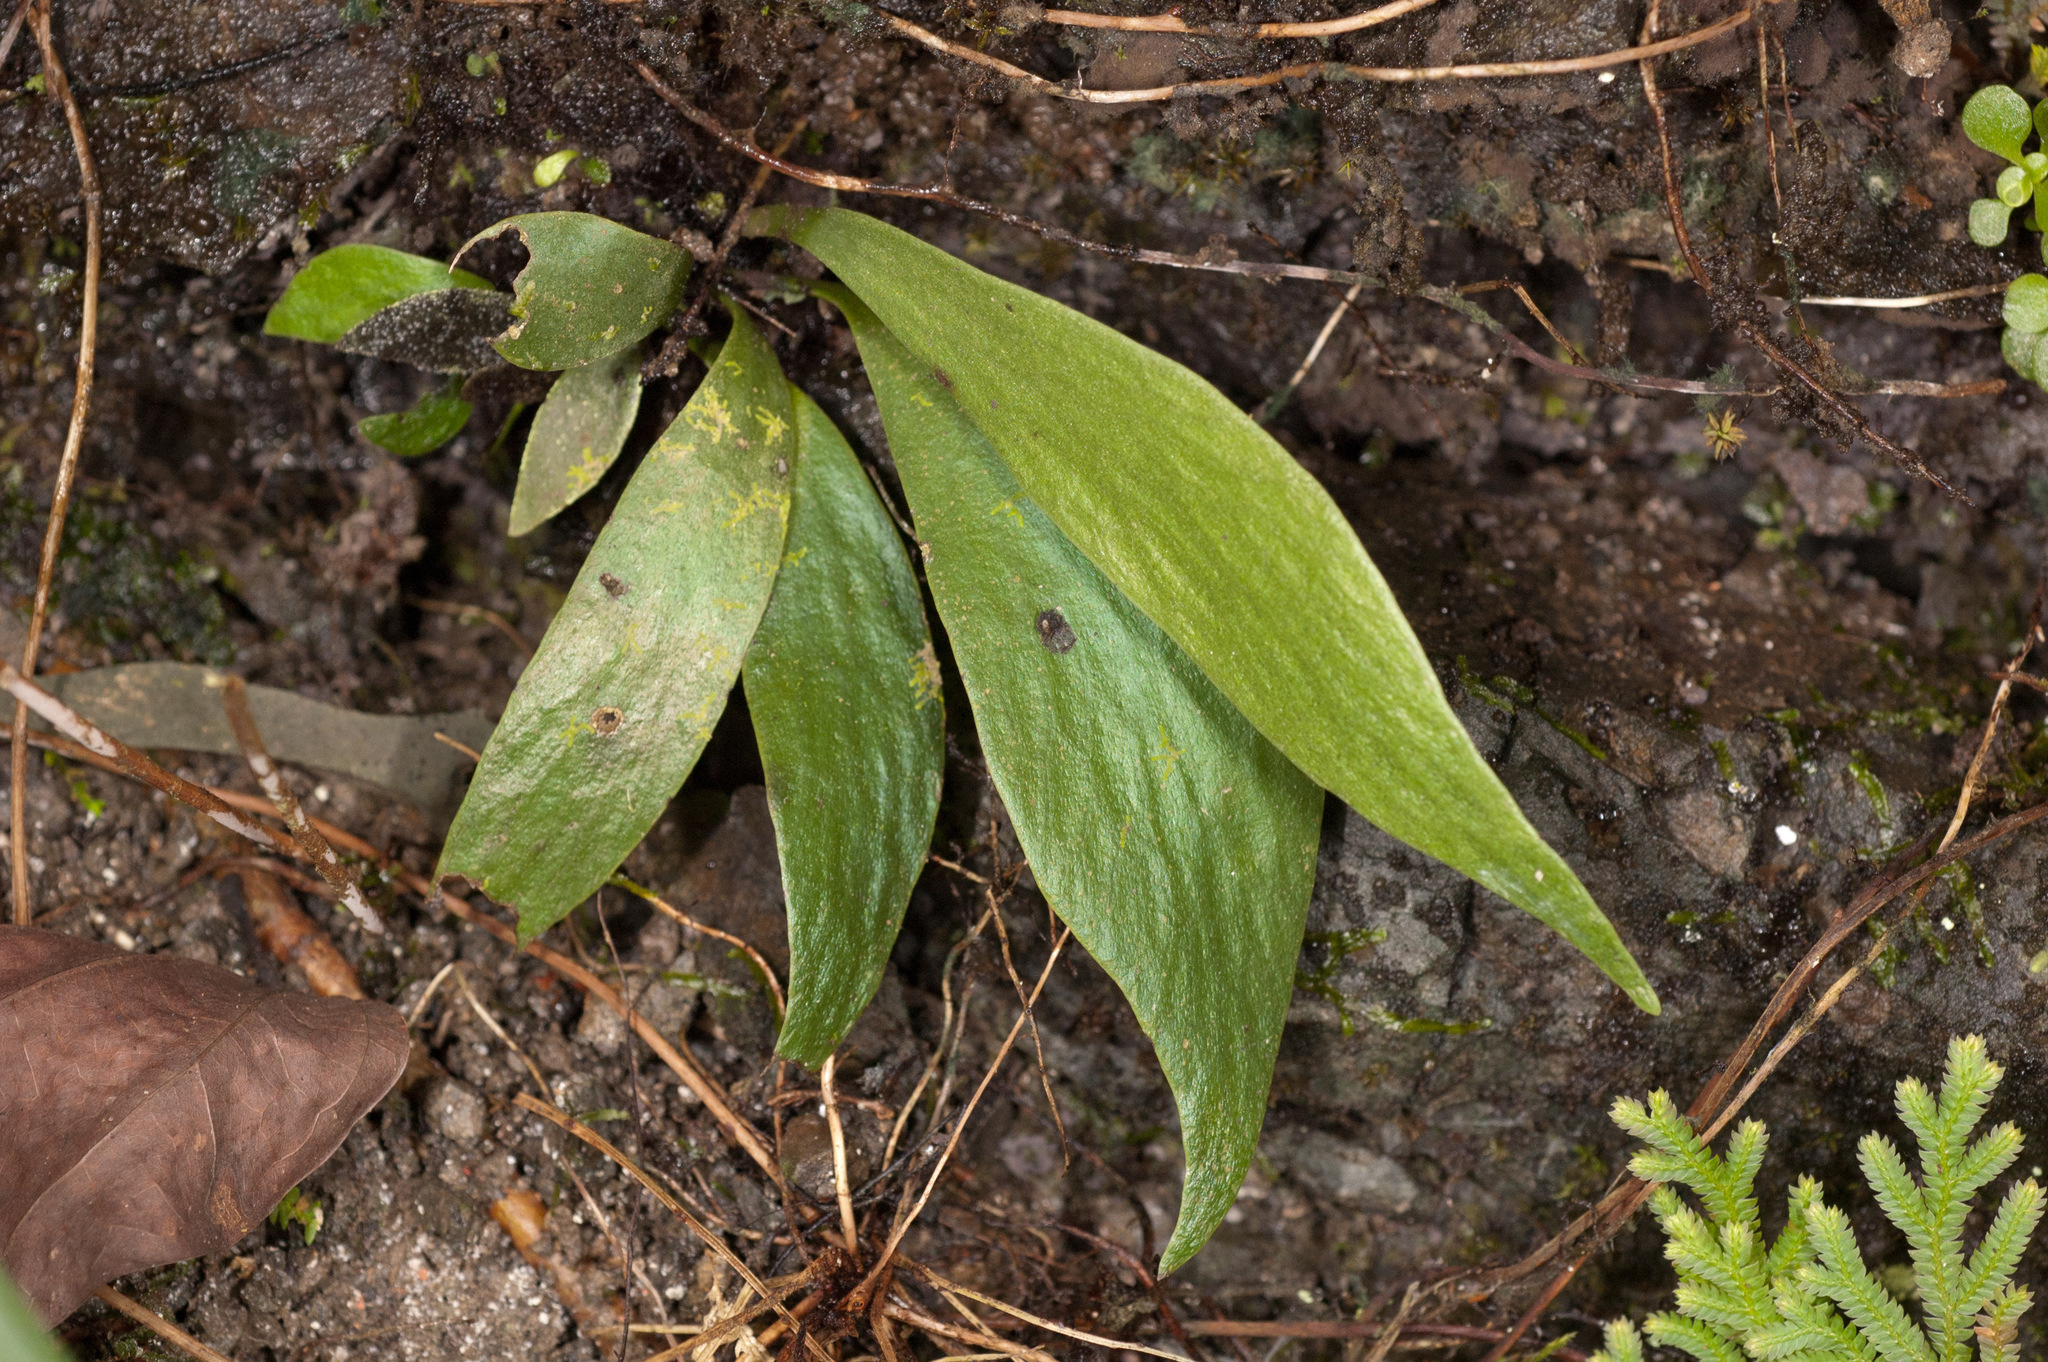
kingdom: Plantae
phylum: Tracheophyta
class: Polypodiopsida
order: Polypodiales
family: Pteridaceae
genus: Antrophyum
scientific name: Antrophyum obovatum
